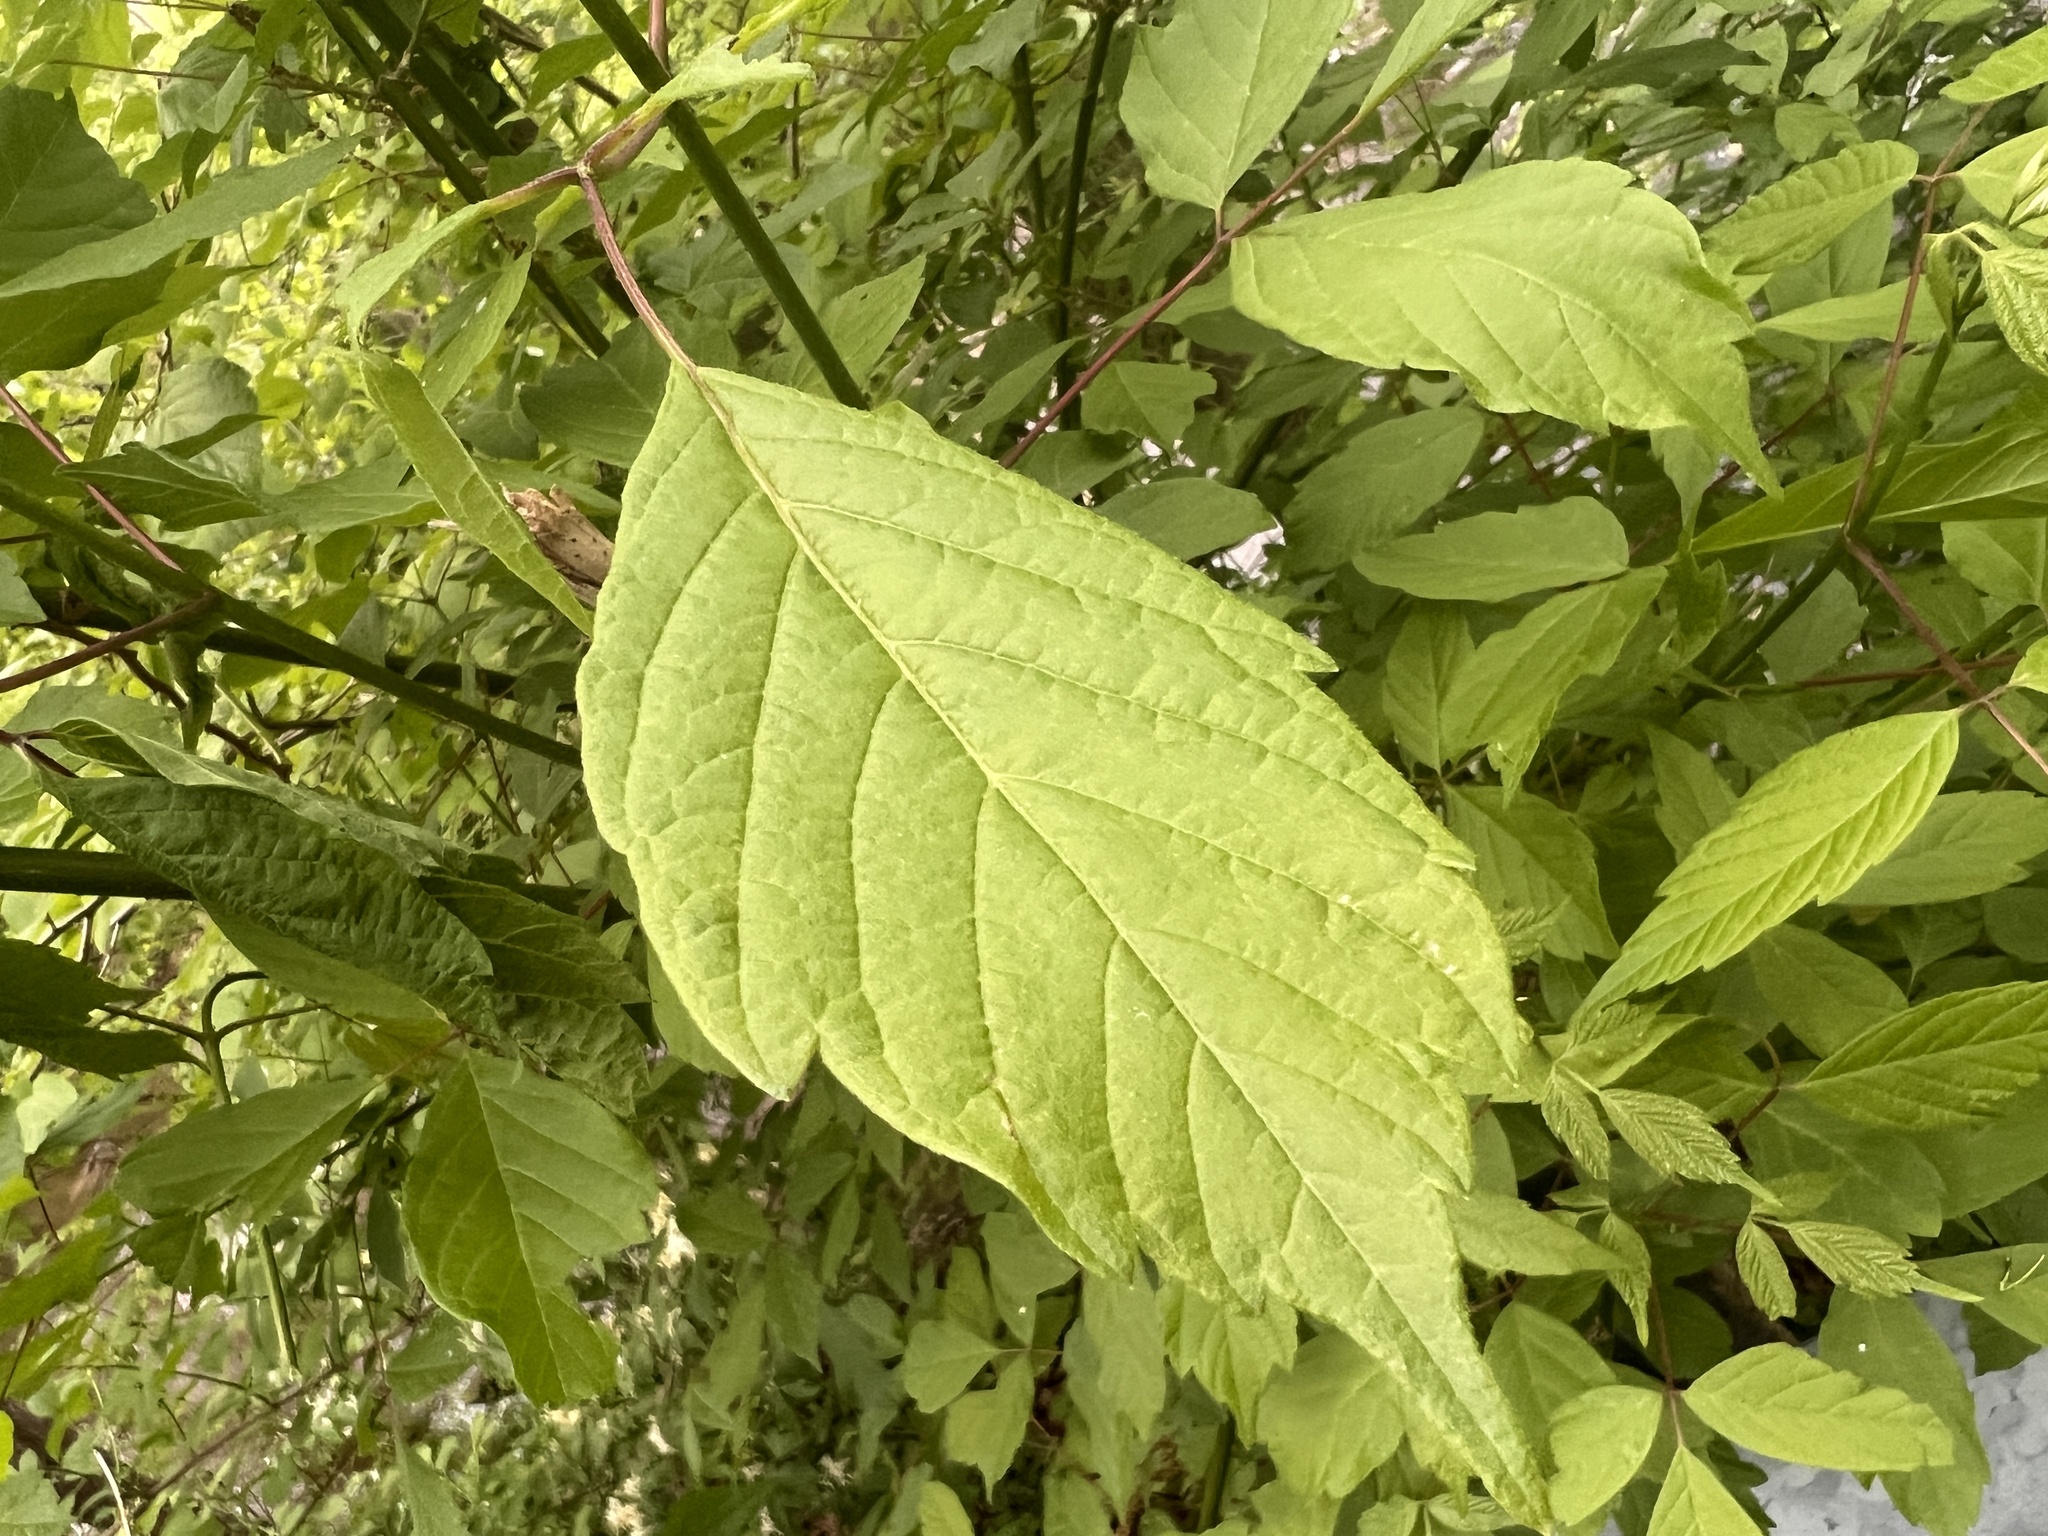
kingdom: Plantae
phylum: Tracheophyta
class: Magnoliopsida
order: Sapindales
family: Sapindaceae
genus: Acer
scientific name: Acer negundo
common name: Ashleaf maple
